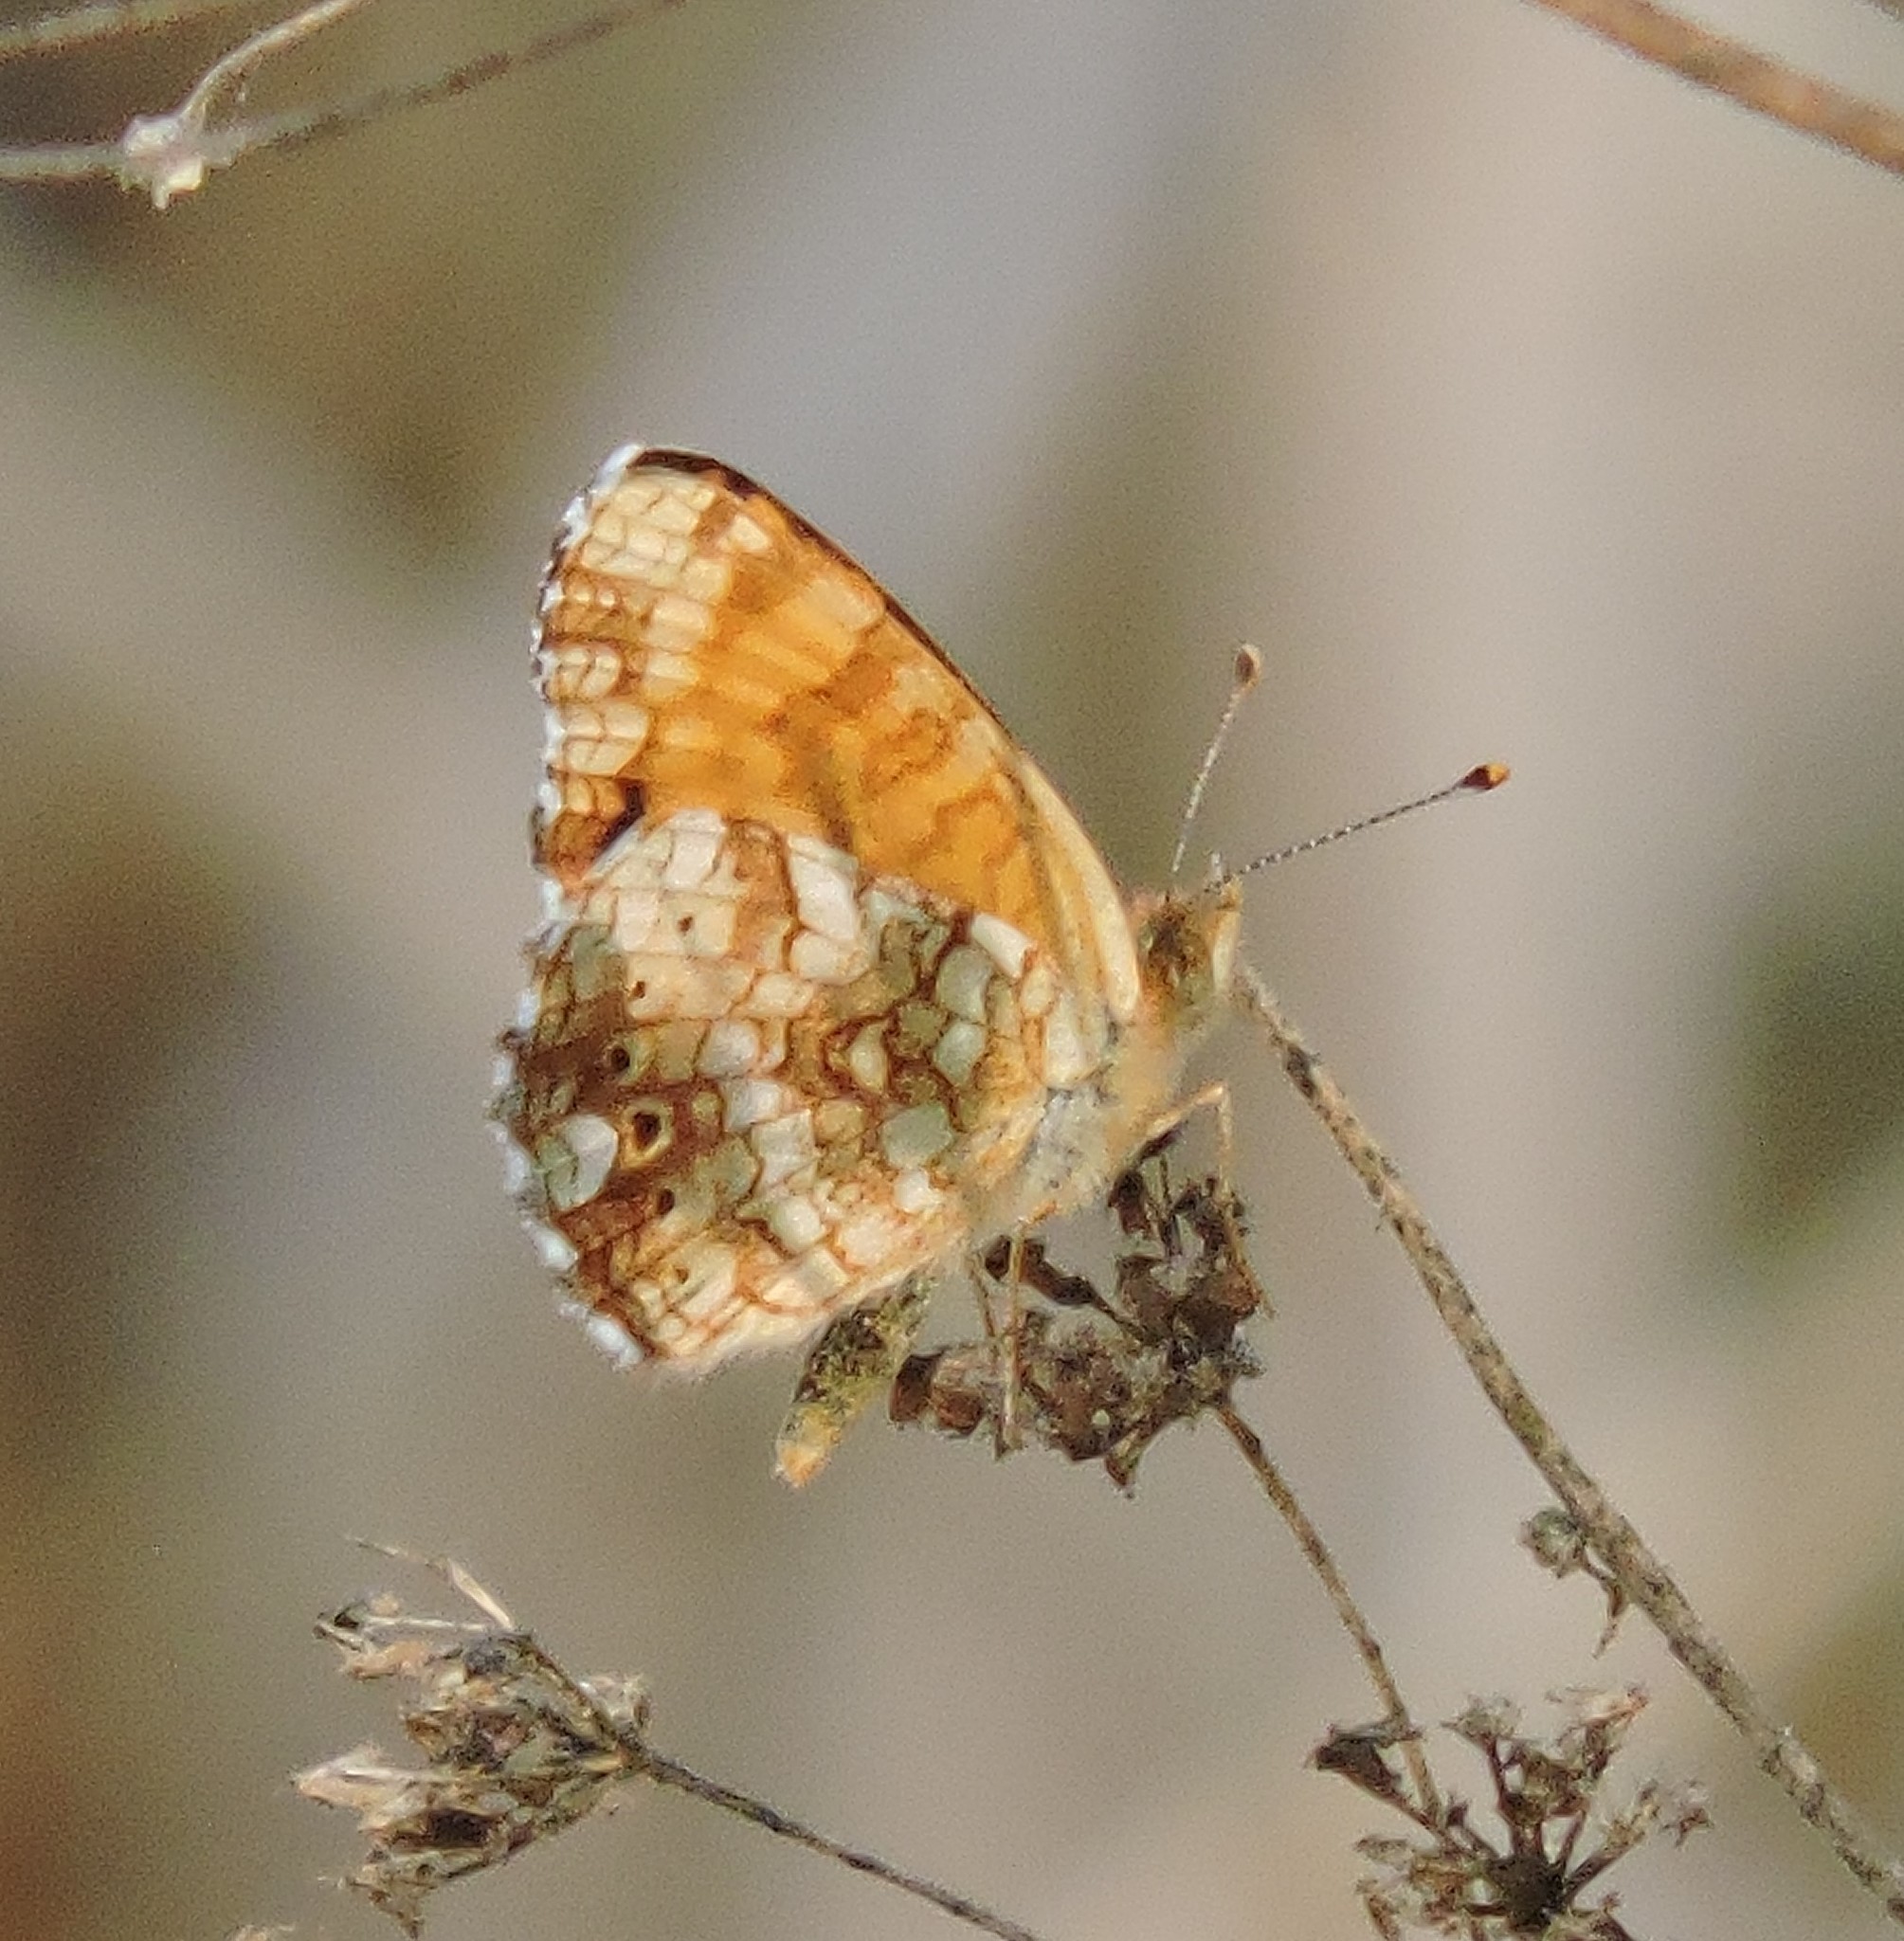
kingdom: Animalia
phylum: Arthropoda
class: Insecta
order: Lepidoptera
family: Nymphalidae
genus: Eresia
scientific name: Eresia aveyrona
